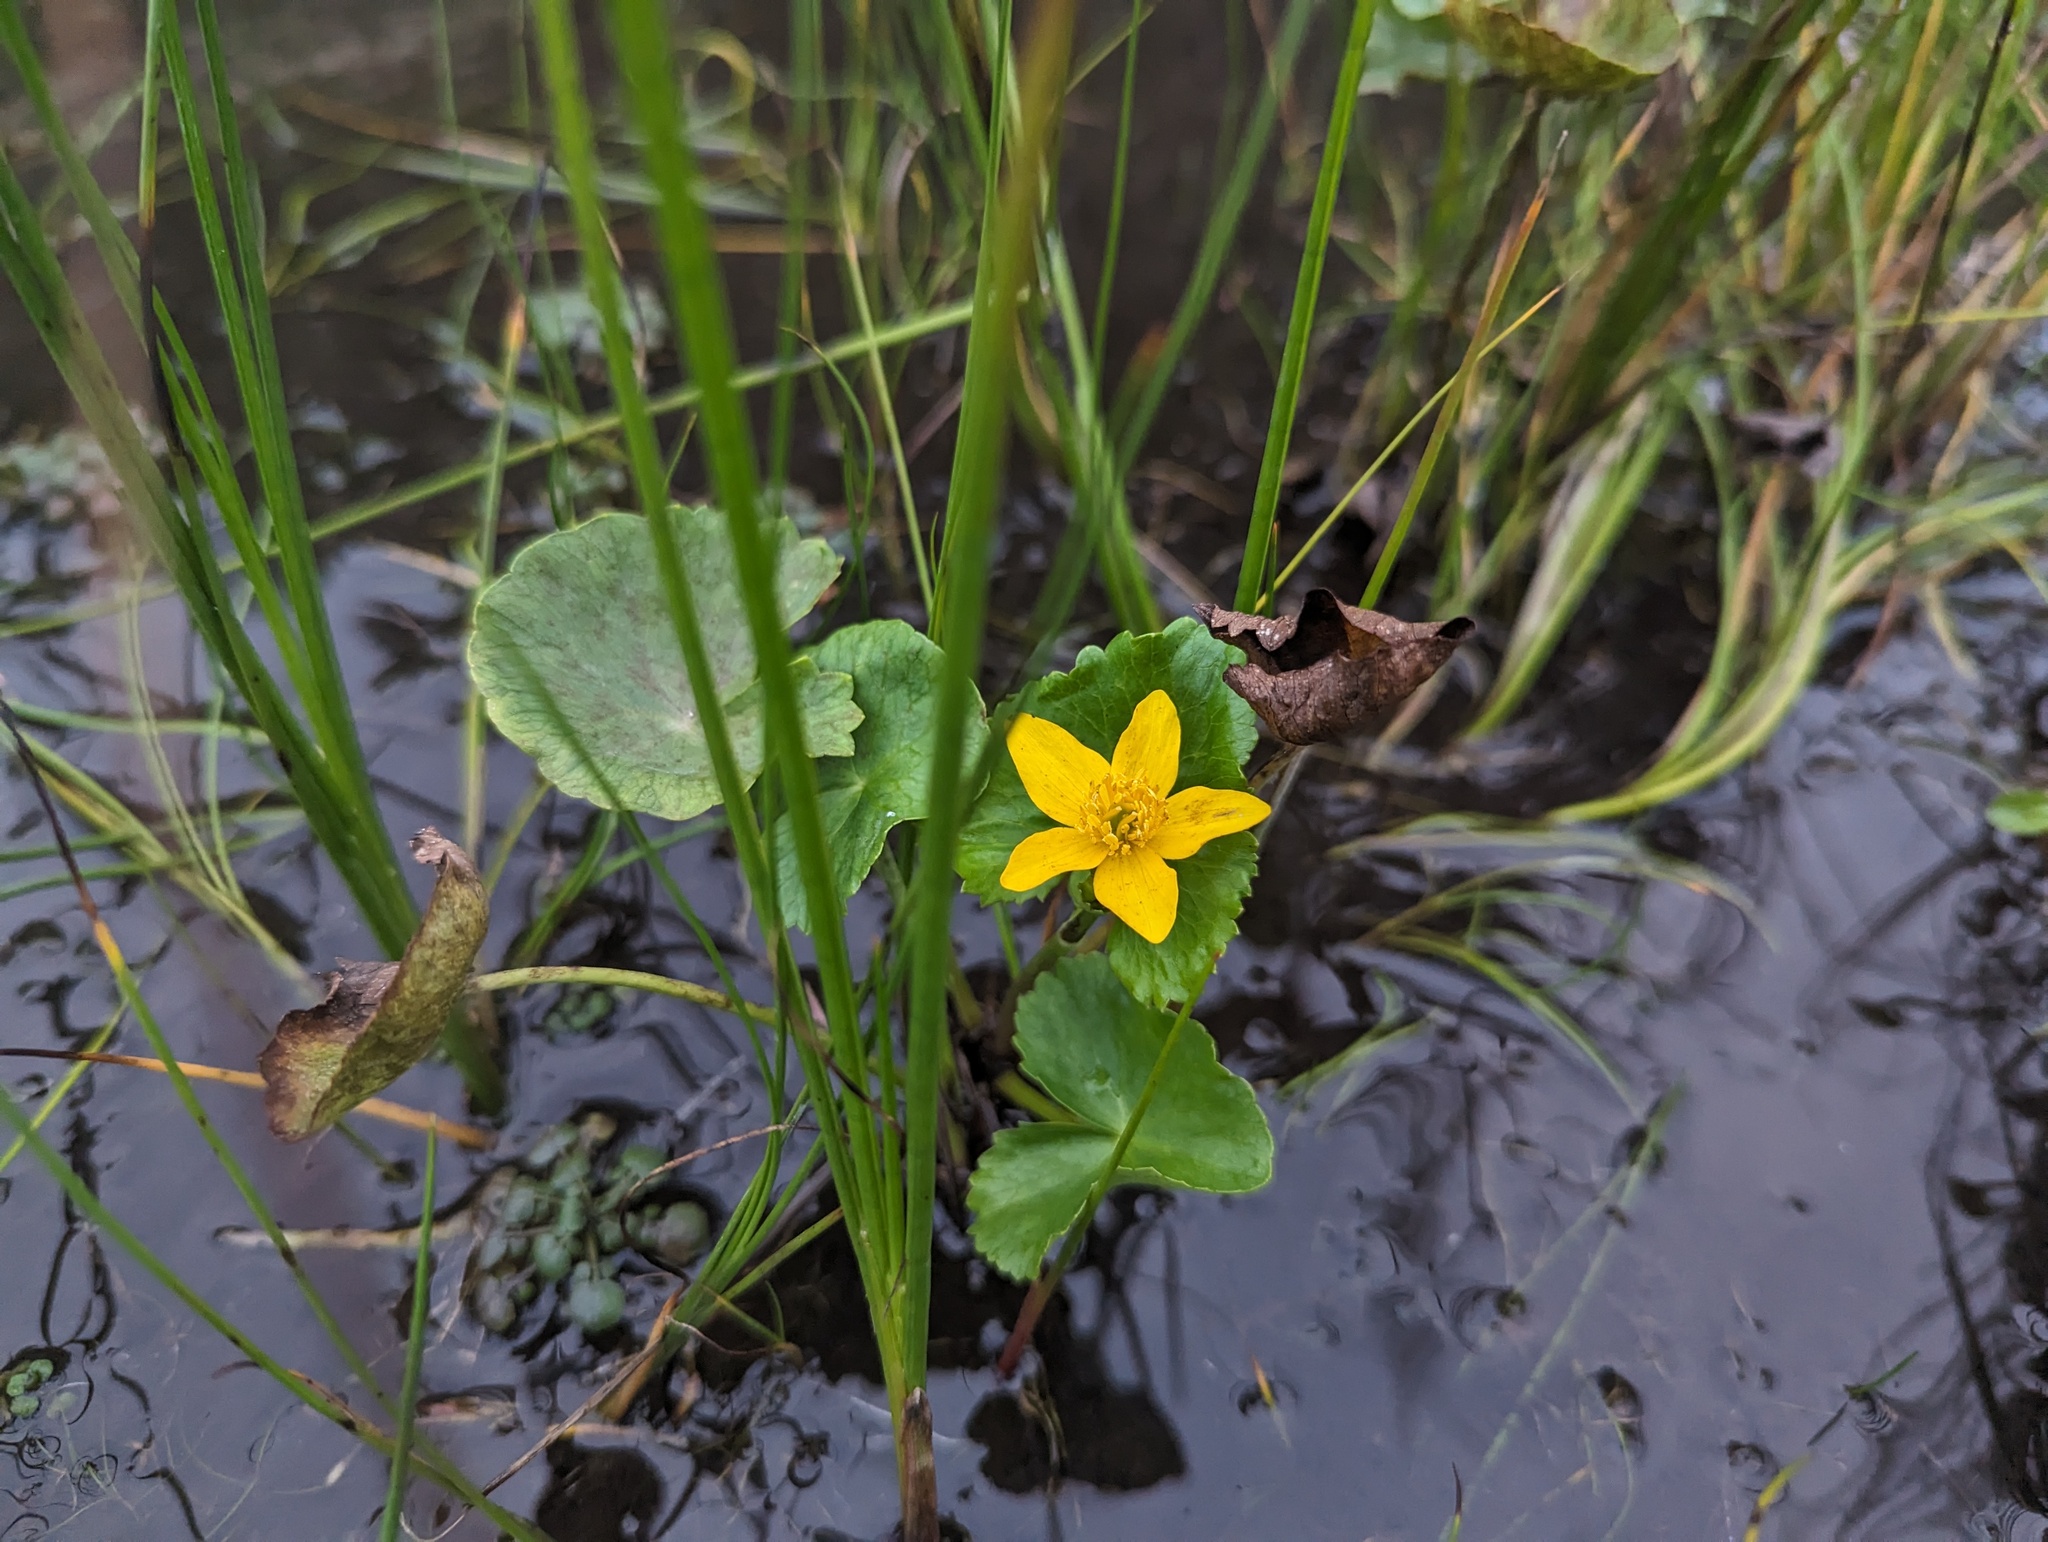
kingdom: Plantae
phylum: Tracheophyta
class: Magnoliopsida
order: Ranunculales
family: Ranunculaceae
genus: Caltha
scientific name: Caltha palustris
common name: Marsh marigold
